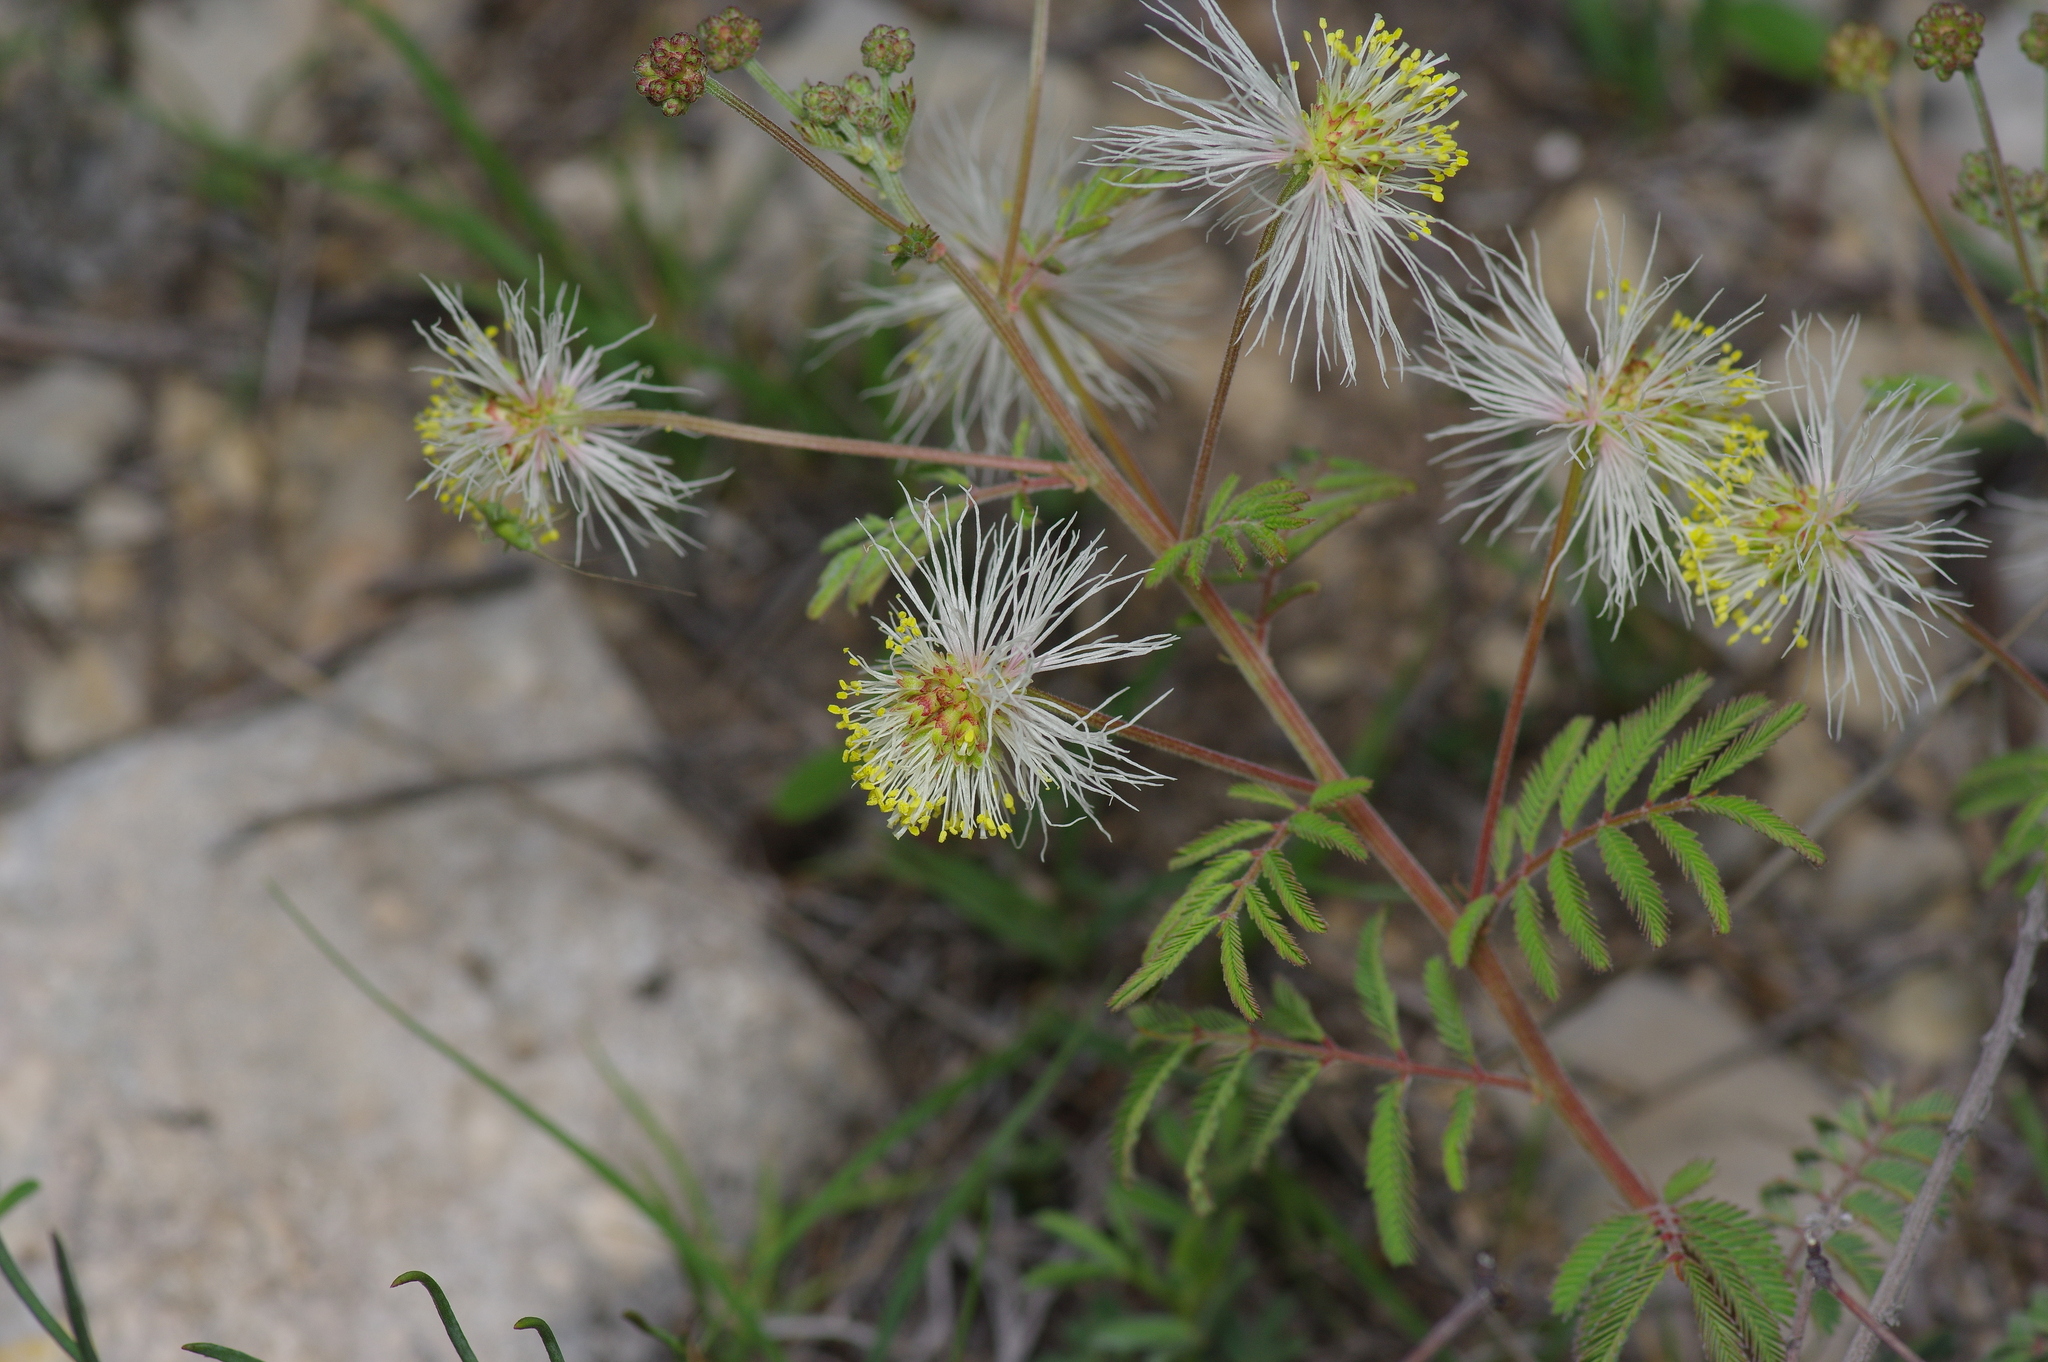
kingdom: Plantae
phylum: Tracheophyta
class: Magnoliopsida
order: Fabales
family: Fabaceae
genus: Desmanthus
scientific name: Desmanthus velutinus
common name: Velvet bundle-flower
